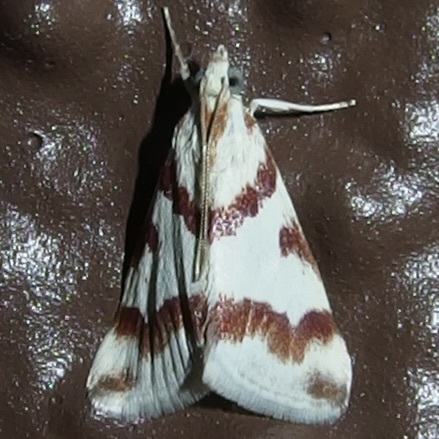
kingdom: Animalia
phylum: Arthropoda
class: Insecta
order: Lepidoptera
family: Crambidae
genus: Noctuelia
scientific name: Noctuelia Mimoschinia rufofascialis
